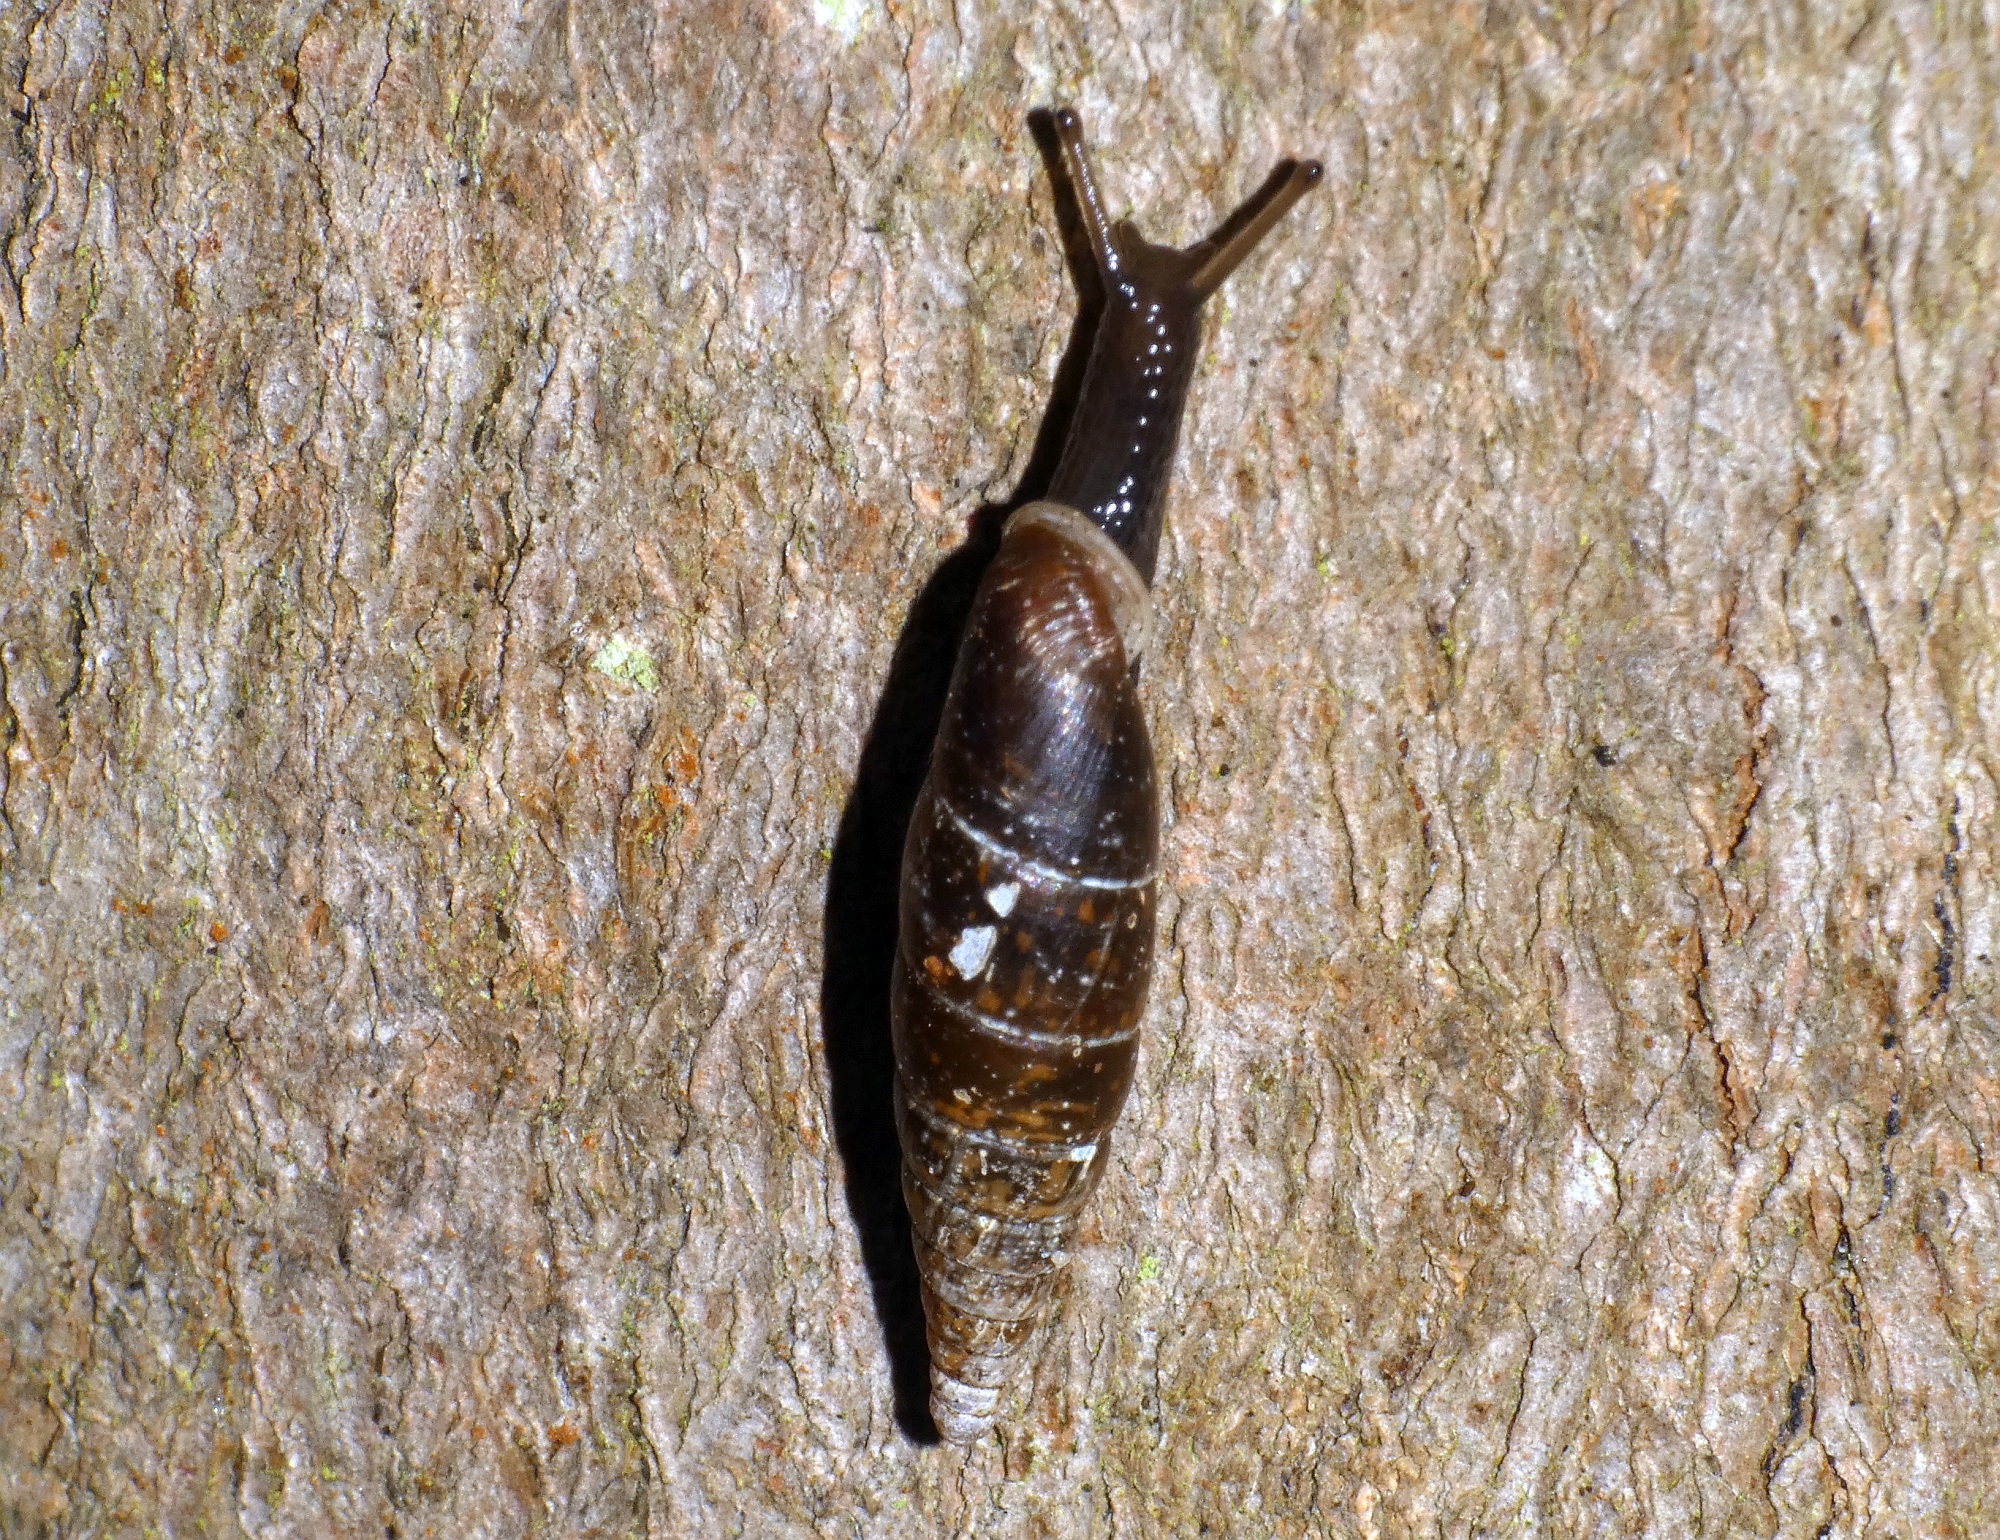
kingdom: Animalia
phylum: Mollusca
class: Gastropoda
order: Stylommatophora
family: Clausiliidae
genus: Cochlodina
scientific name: Cochlodina laminata
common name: Plaited door snail
